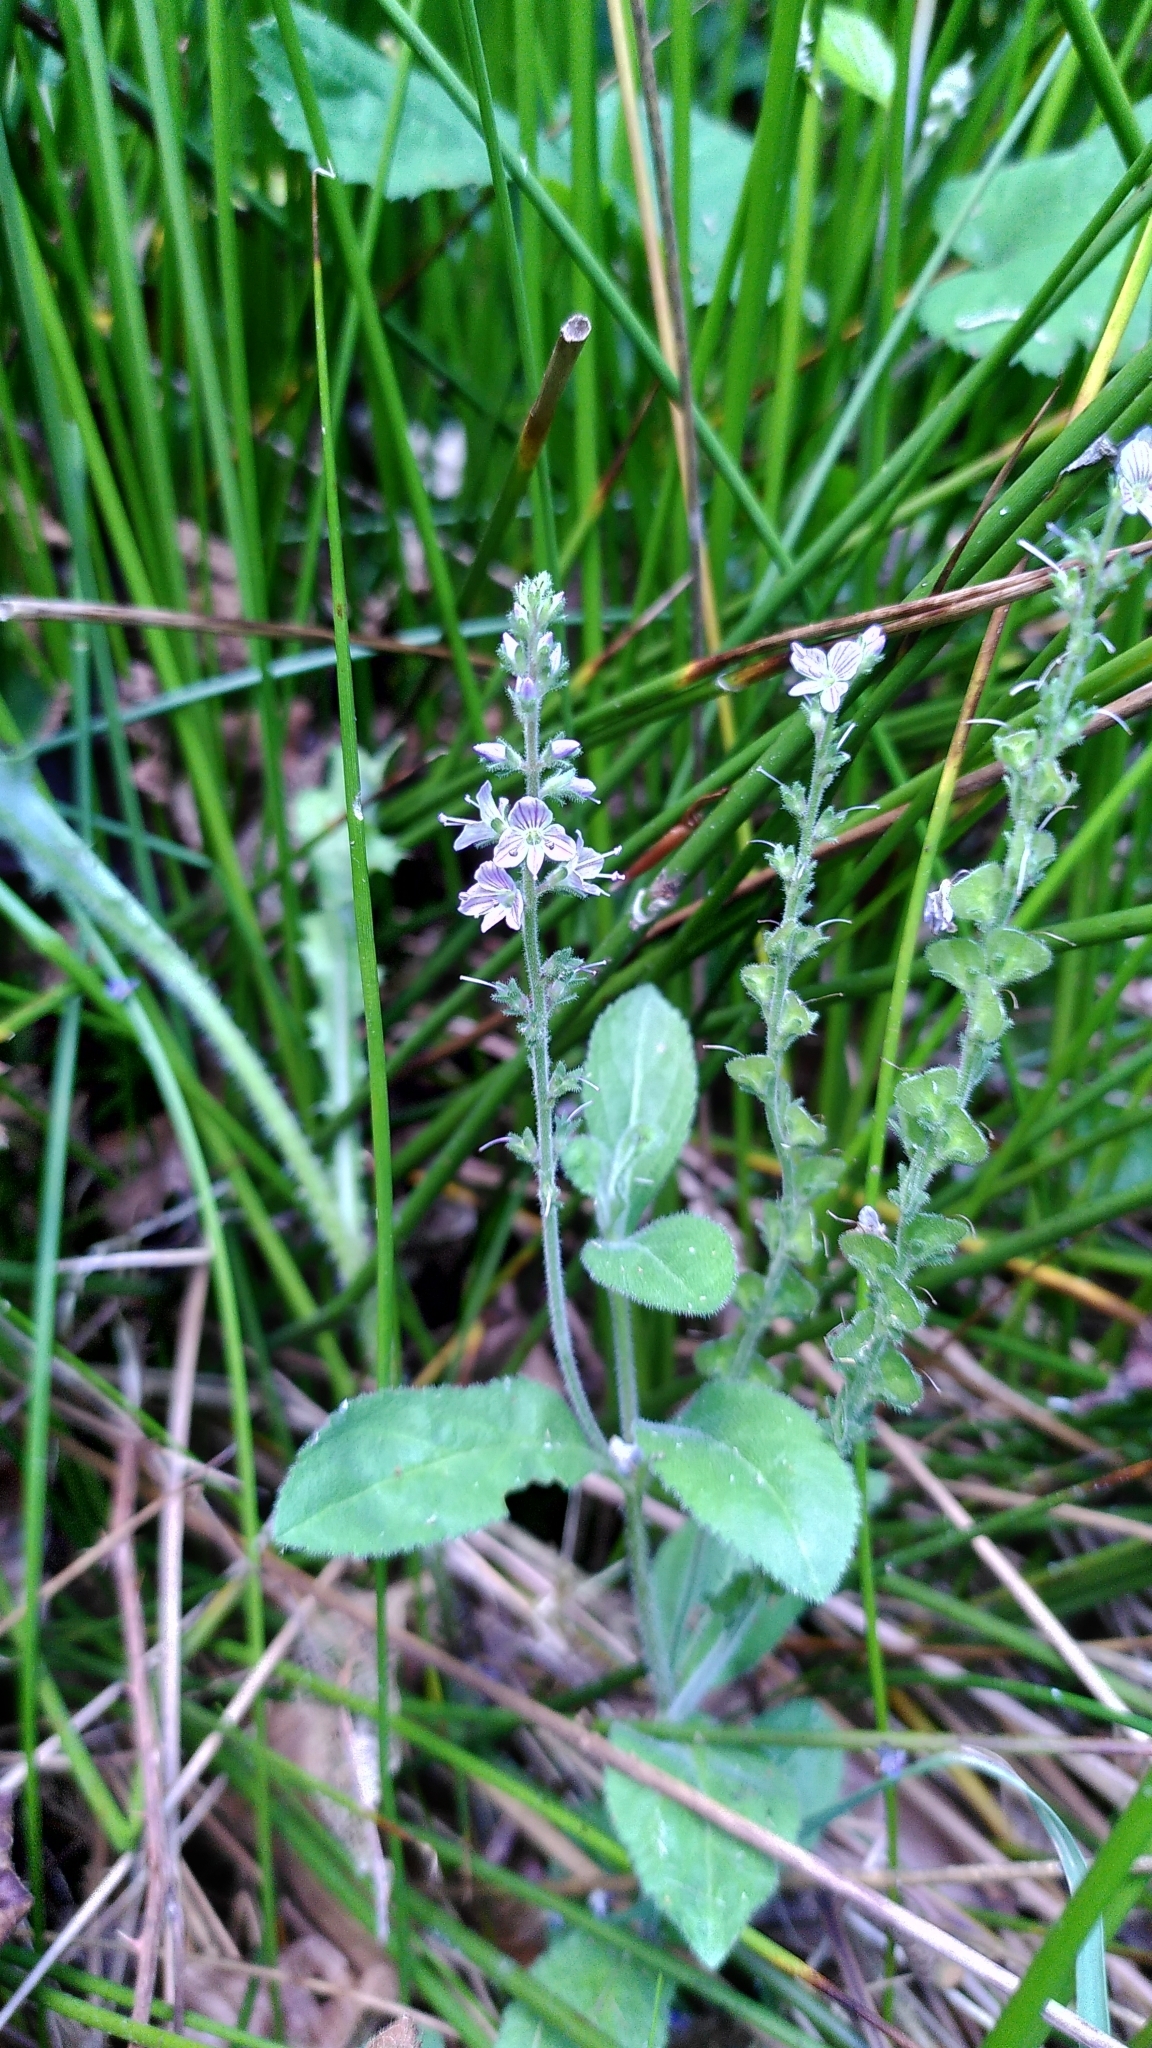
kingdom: Plantae
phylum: Tracheophyta
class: Magnoliopsida
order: Lamiales
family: Plantaginaceae
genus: Veronica
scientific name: Veronica officinalis
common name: Common speedwell
